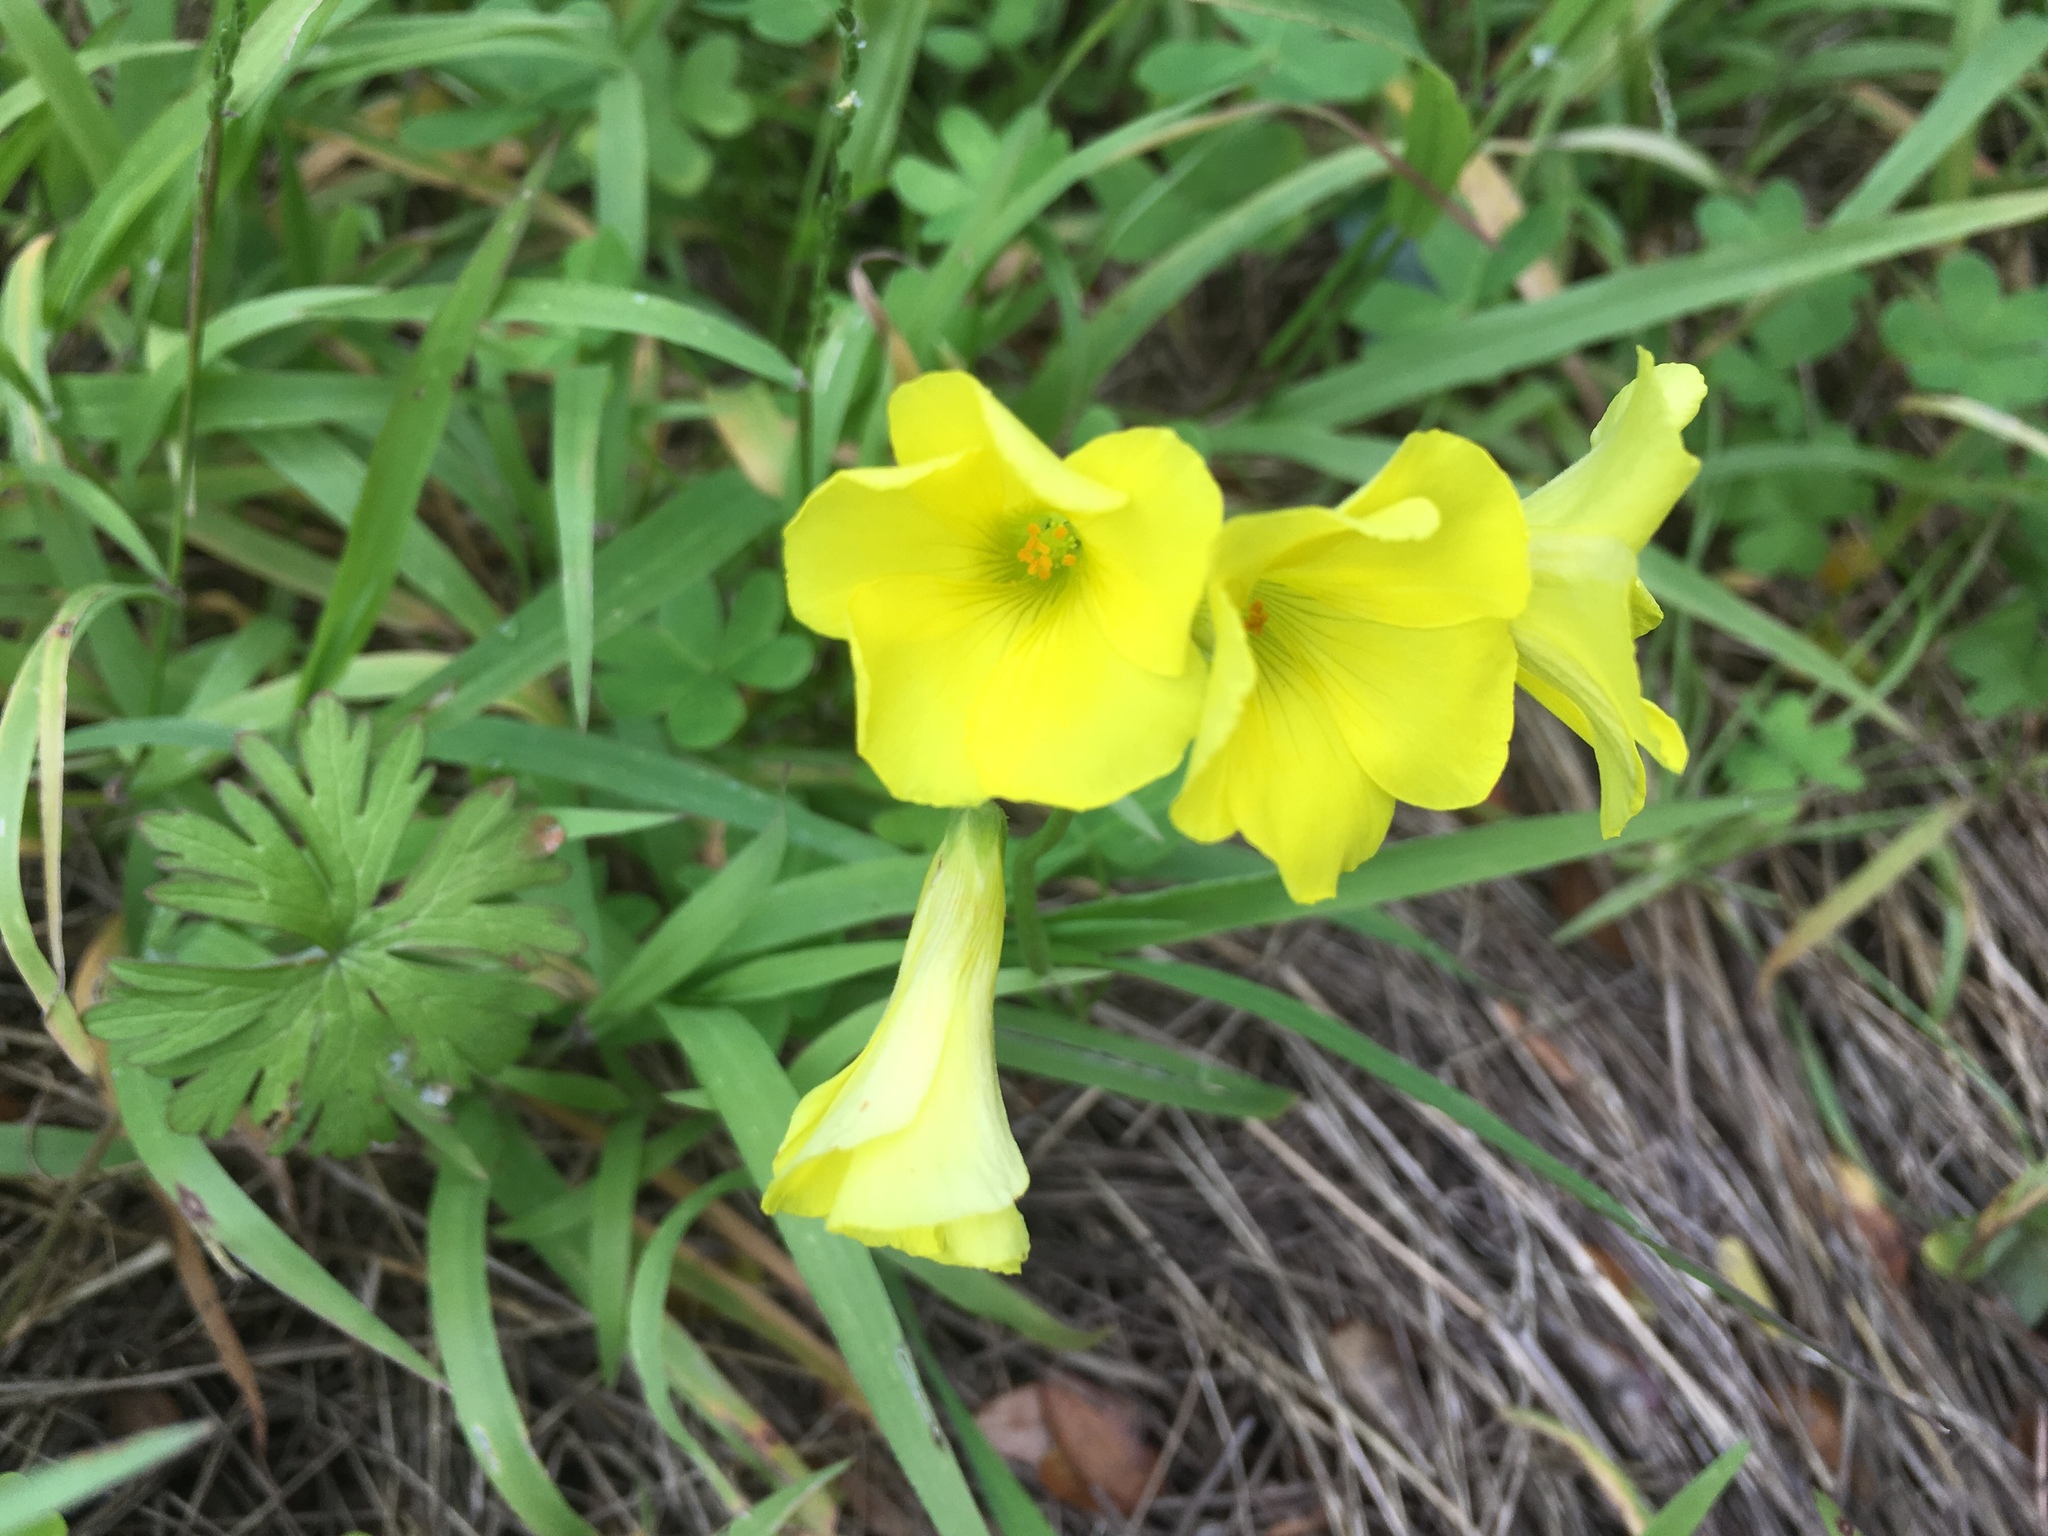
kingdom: Plantae
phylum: Tracheophyta
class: Magnoliopsida
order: Oxalidales
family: Oxalidaceae
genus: Oxalis
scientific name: Oxalis pes-caprae
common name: Bermuda-buttercup
